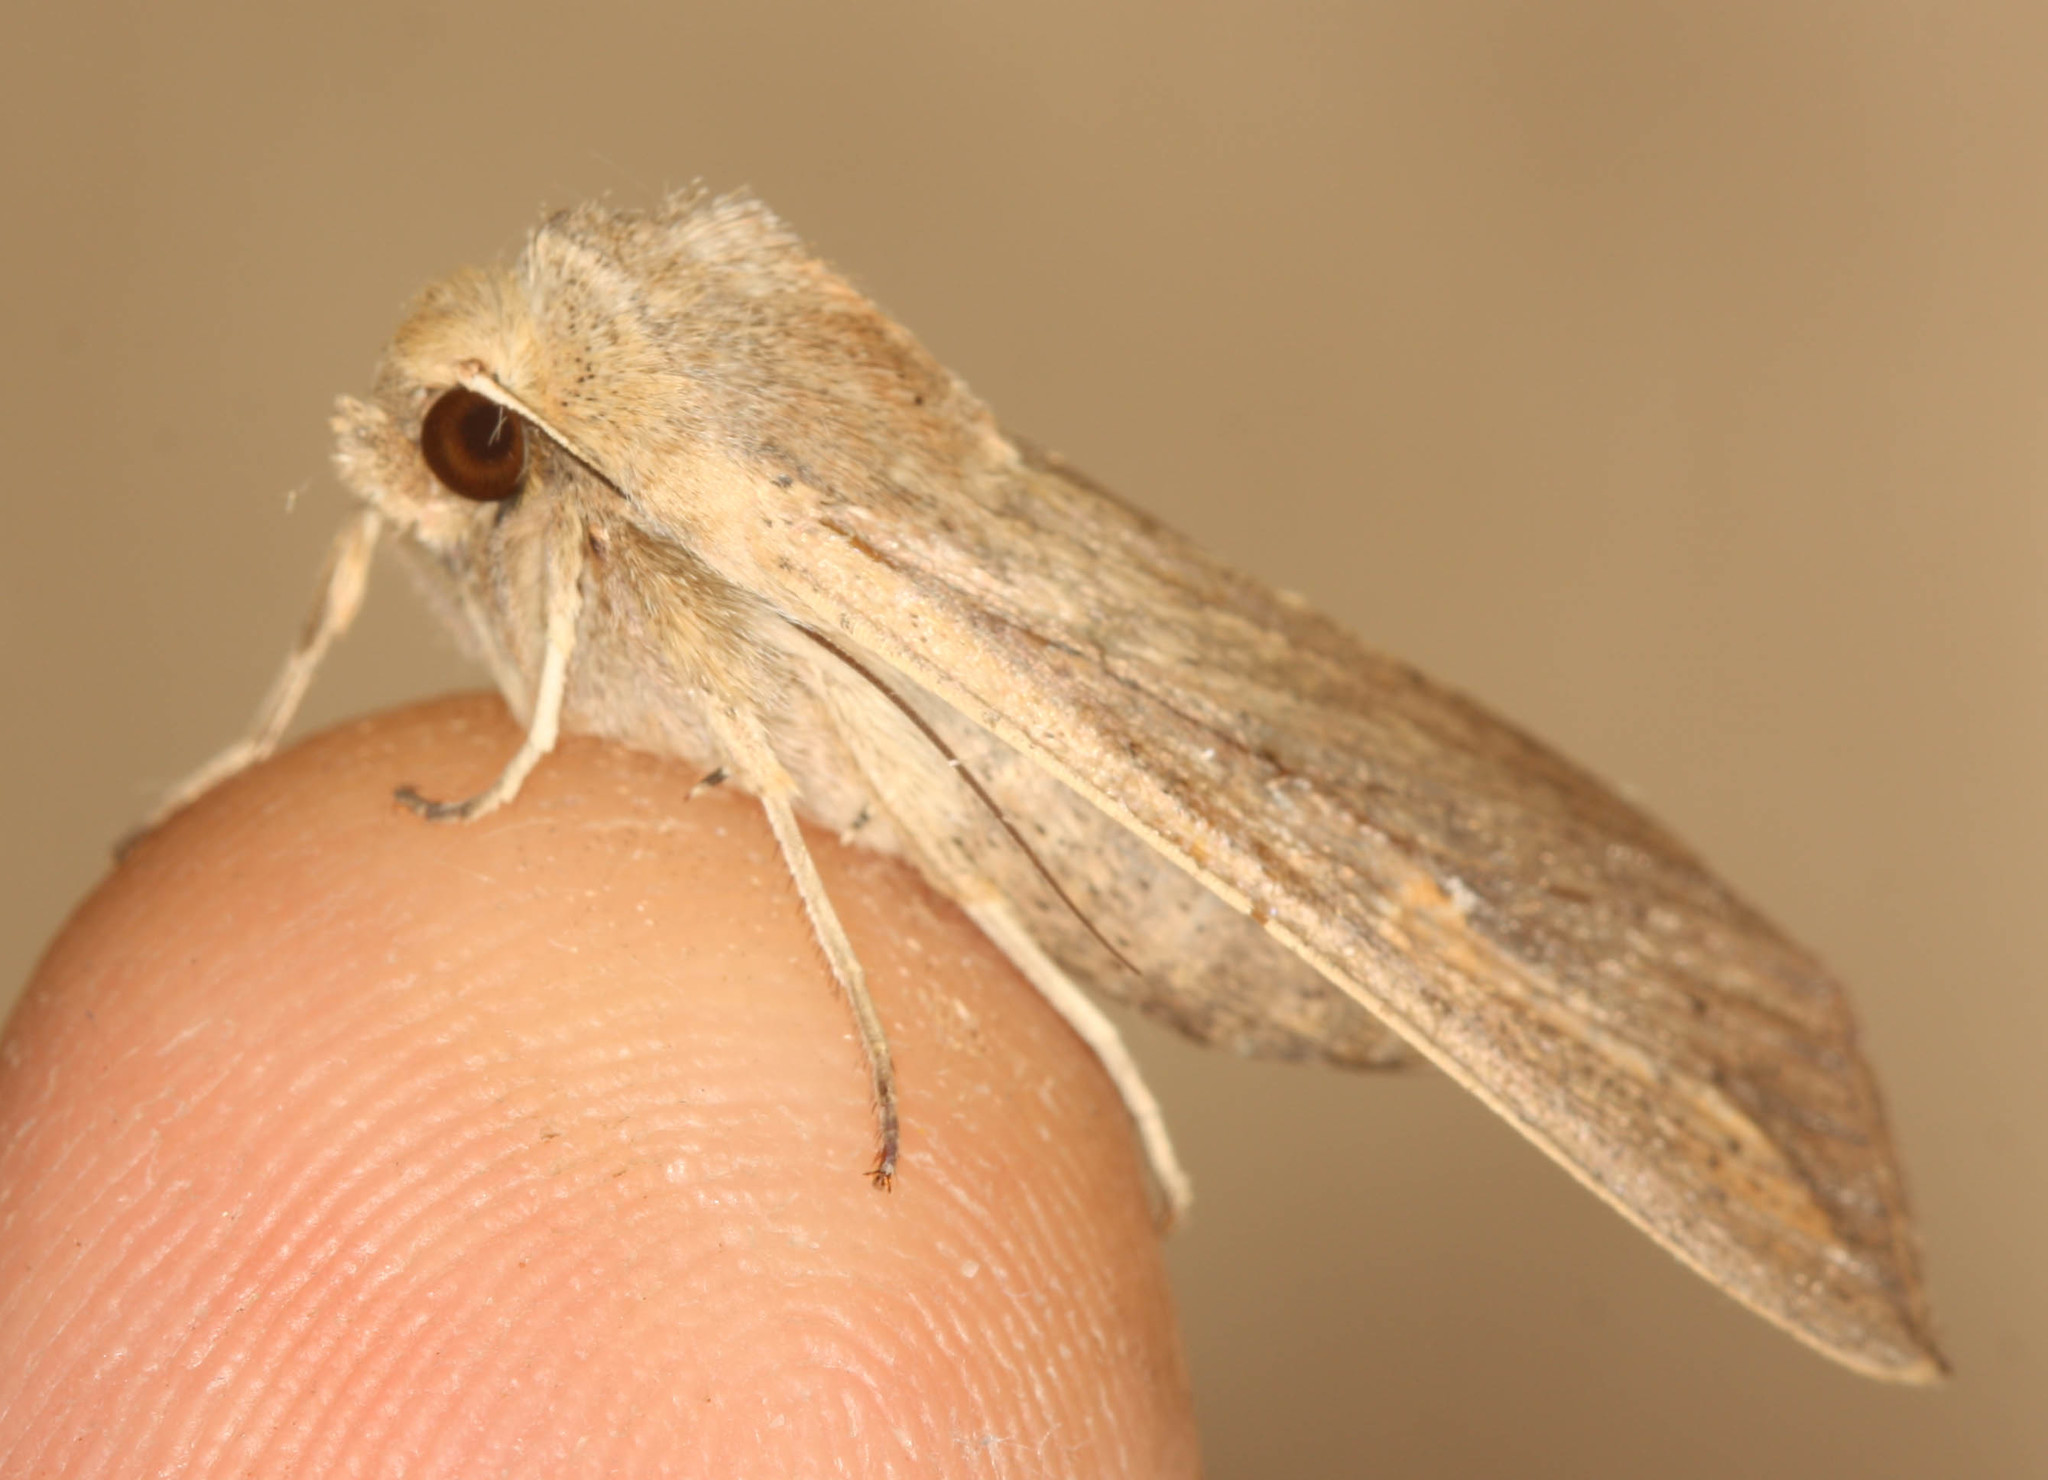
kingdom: Animalia
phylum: Arthropoda
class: Insecta
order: Lepidoptera
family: Noctuidae
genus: Mythimna
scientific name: Mythimna unipuncta
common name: White-speck
